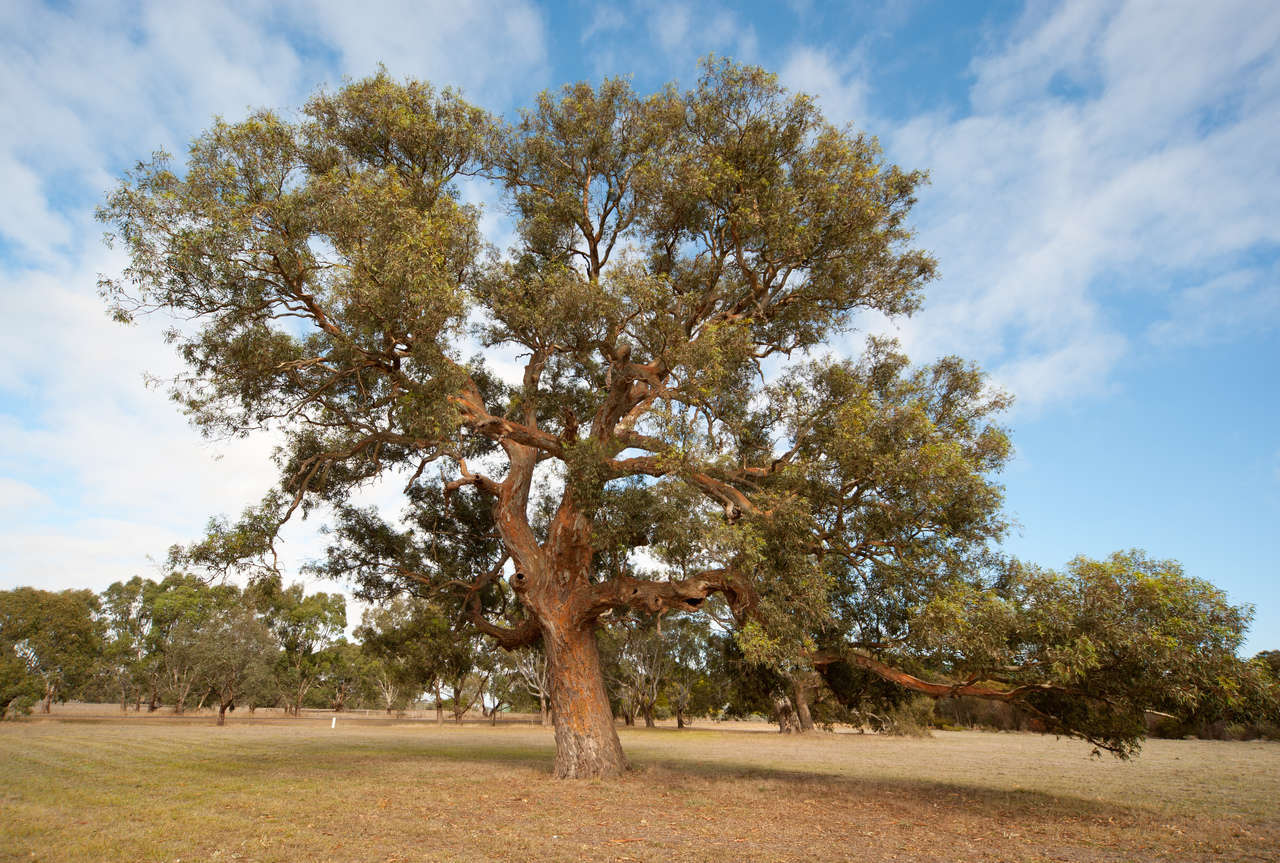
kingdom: Plantae
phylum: Tracheophyta
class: Magnoliopsida
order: Myrtales
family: Myrtaceae
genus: Eucalyptus
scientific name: Eucalyptus camaldulensis
